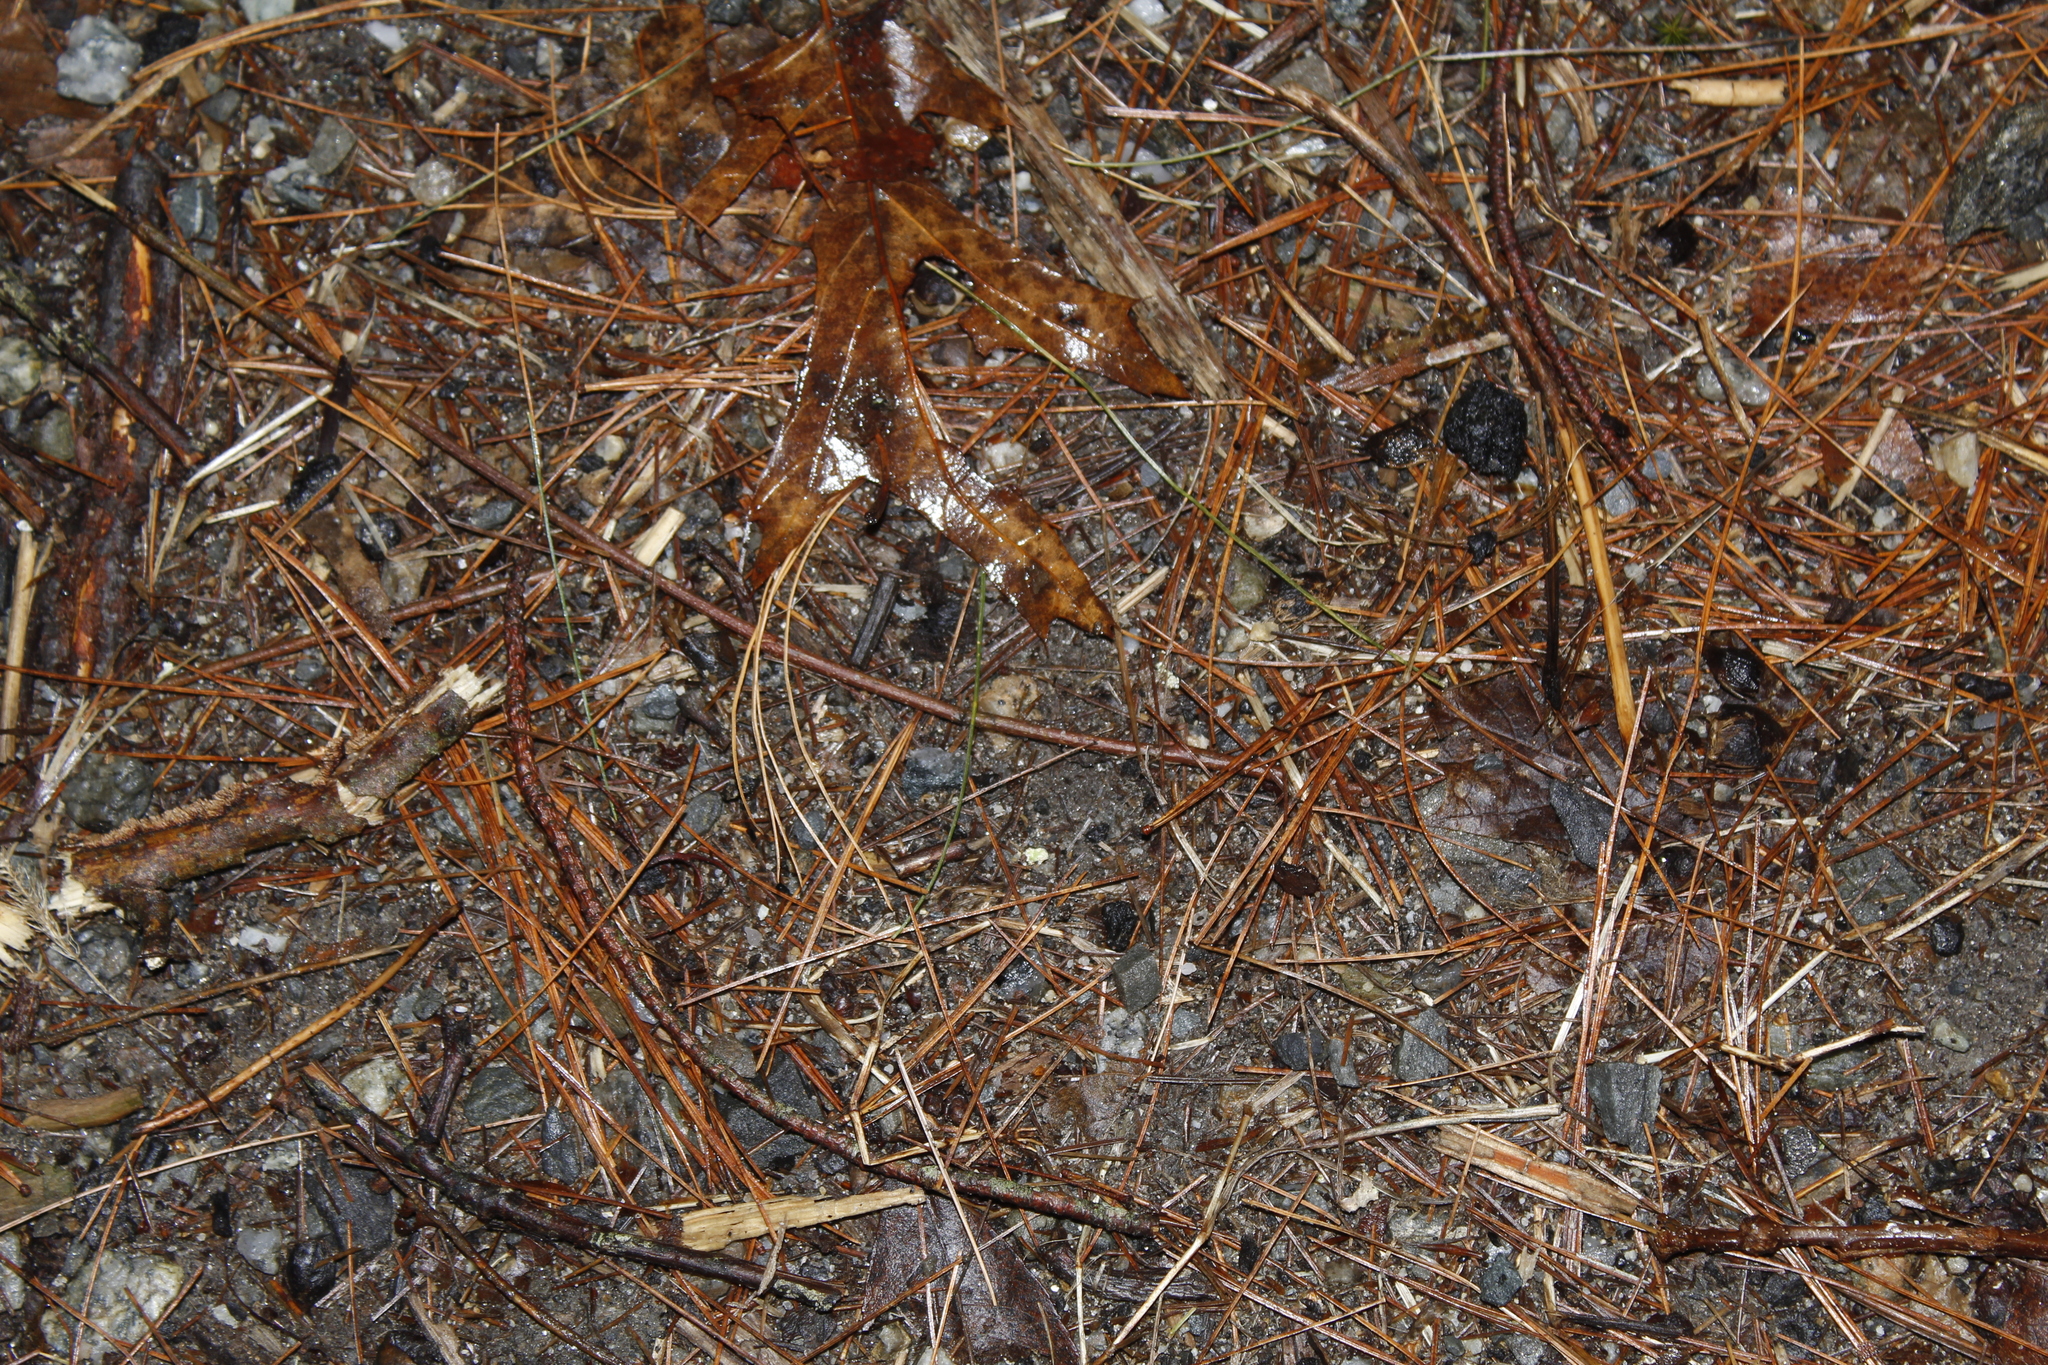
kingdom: Plantae
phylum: Tracheophyta
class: Pinopsida
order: Pinales
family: Pinaceae
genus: Pinus
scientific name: Pinus strobus
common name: Weymouth pine
